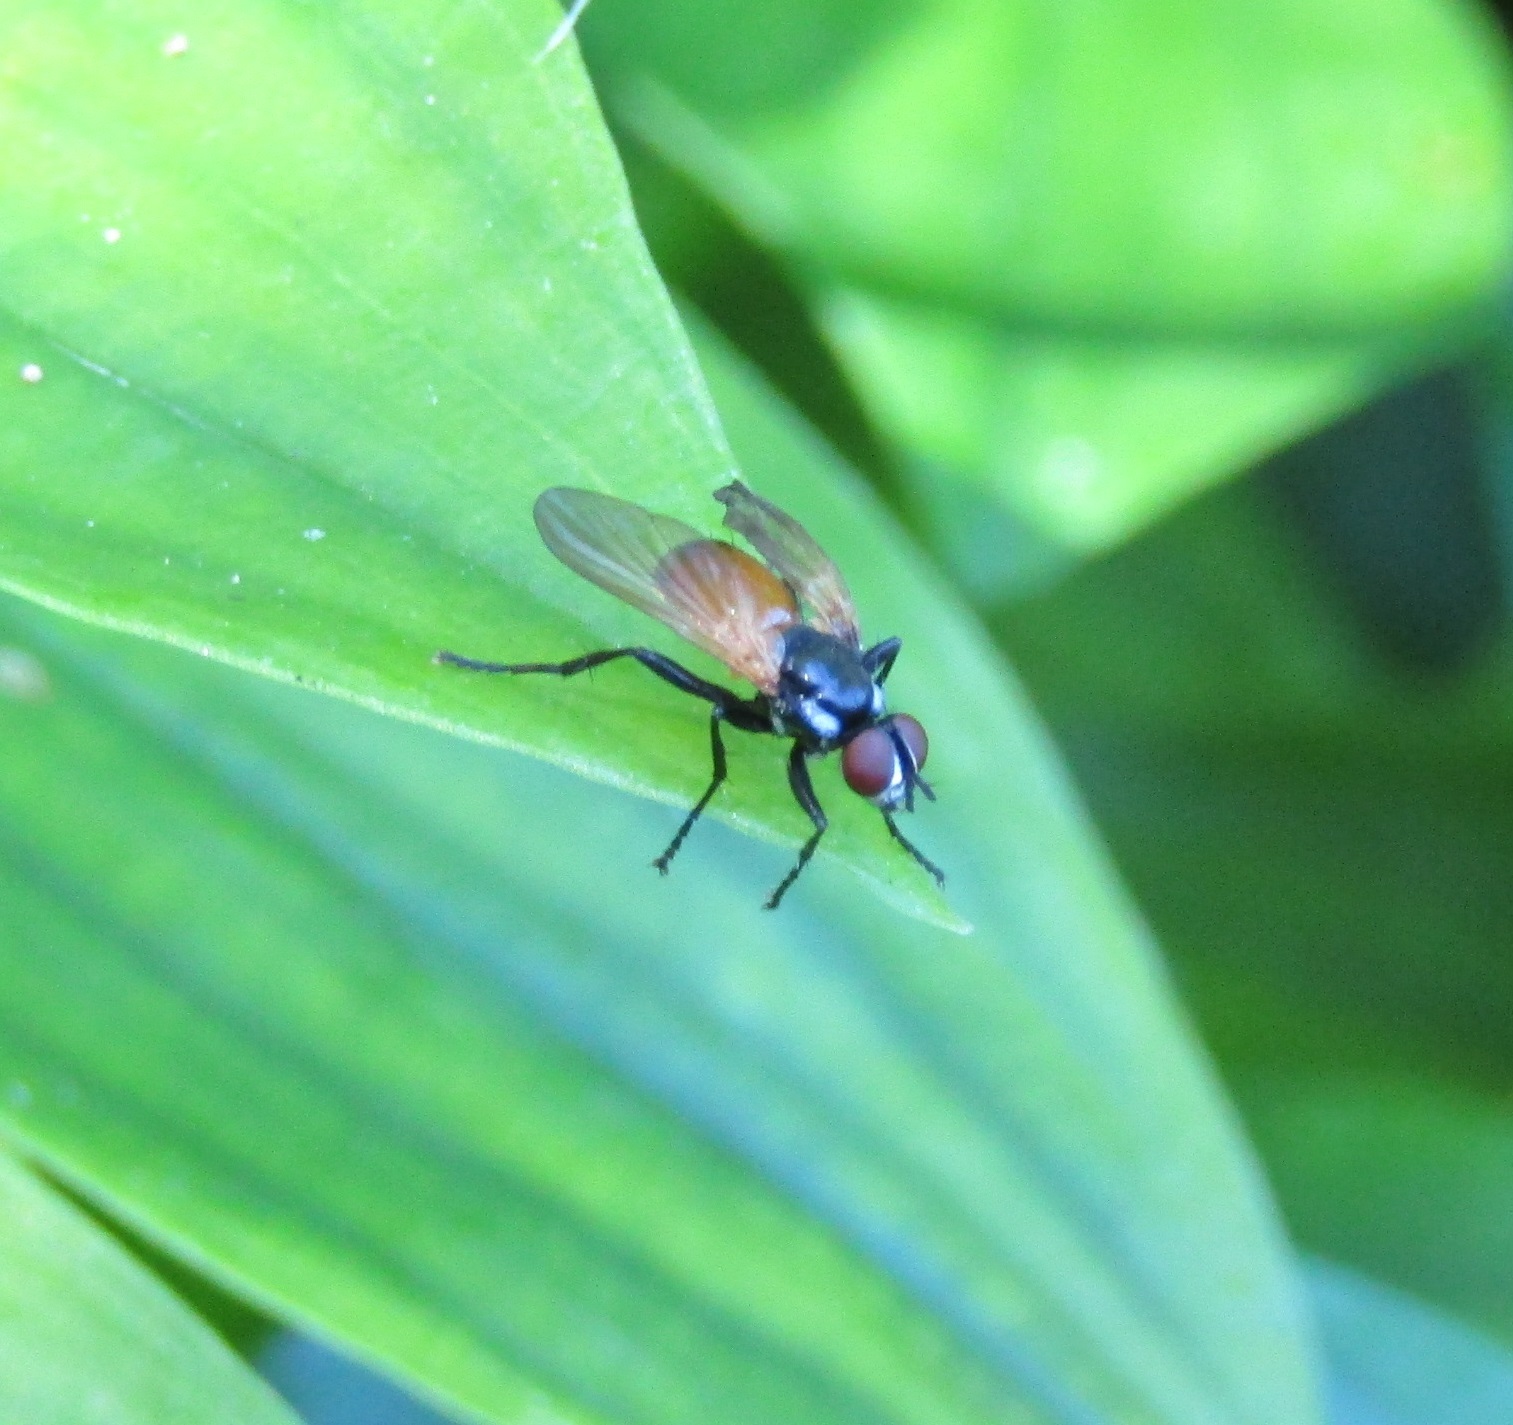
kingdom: Animalia
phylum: Arthropoda
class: Insecta
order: Diptera
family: Tachinidae
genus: Huttonobesseria
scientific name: Huttonobesseria verecunda
